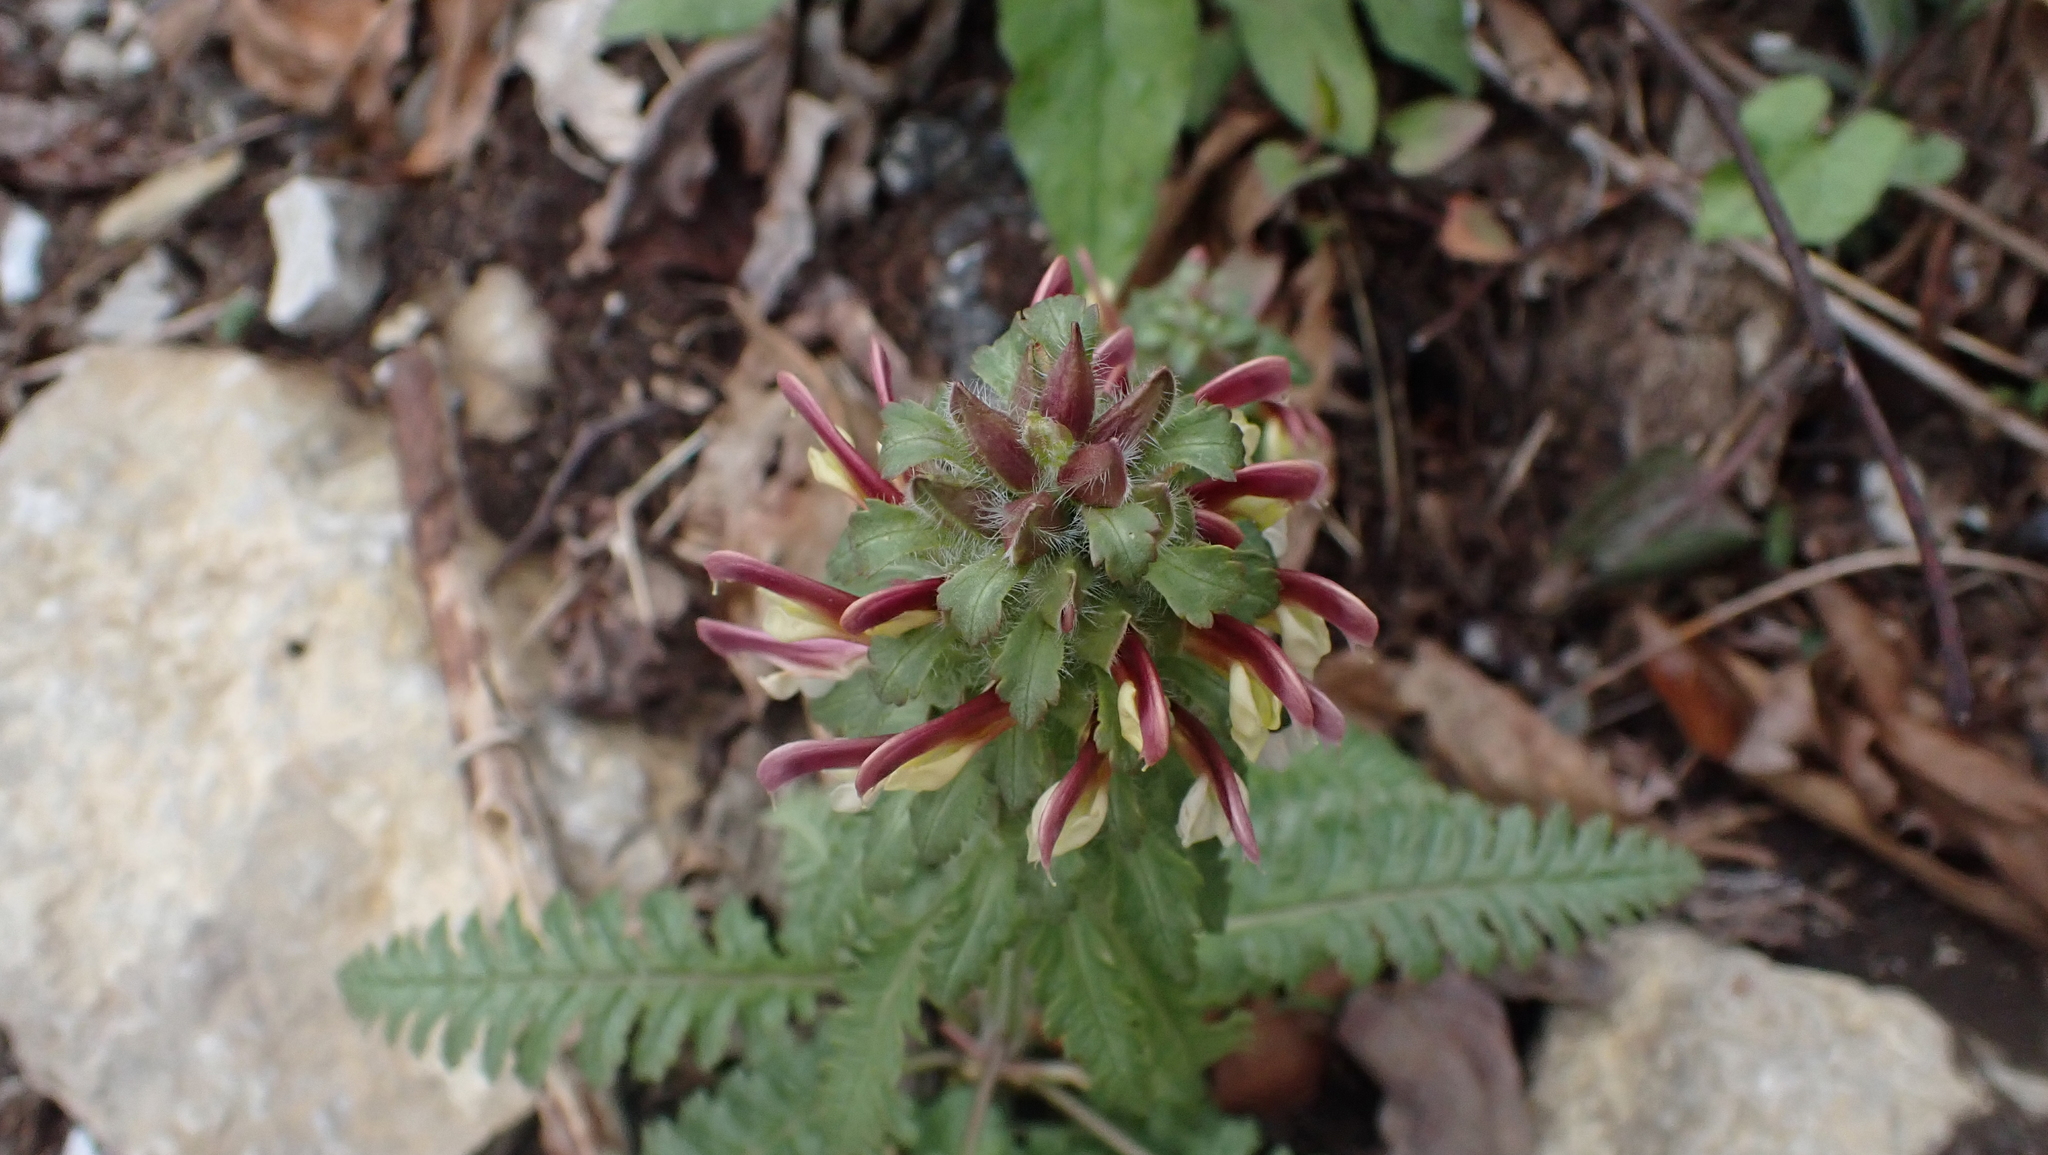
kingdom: Plantae
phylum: Tracheophyta
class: Magnoliopsida
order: Lamiales
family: Orobanchaceae
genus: Pedicularis
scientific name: Pedicularis canadensis
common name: Early lousewort
